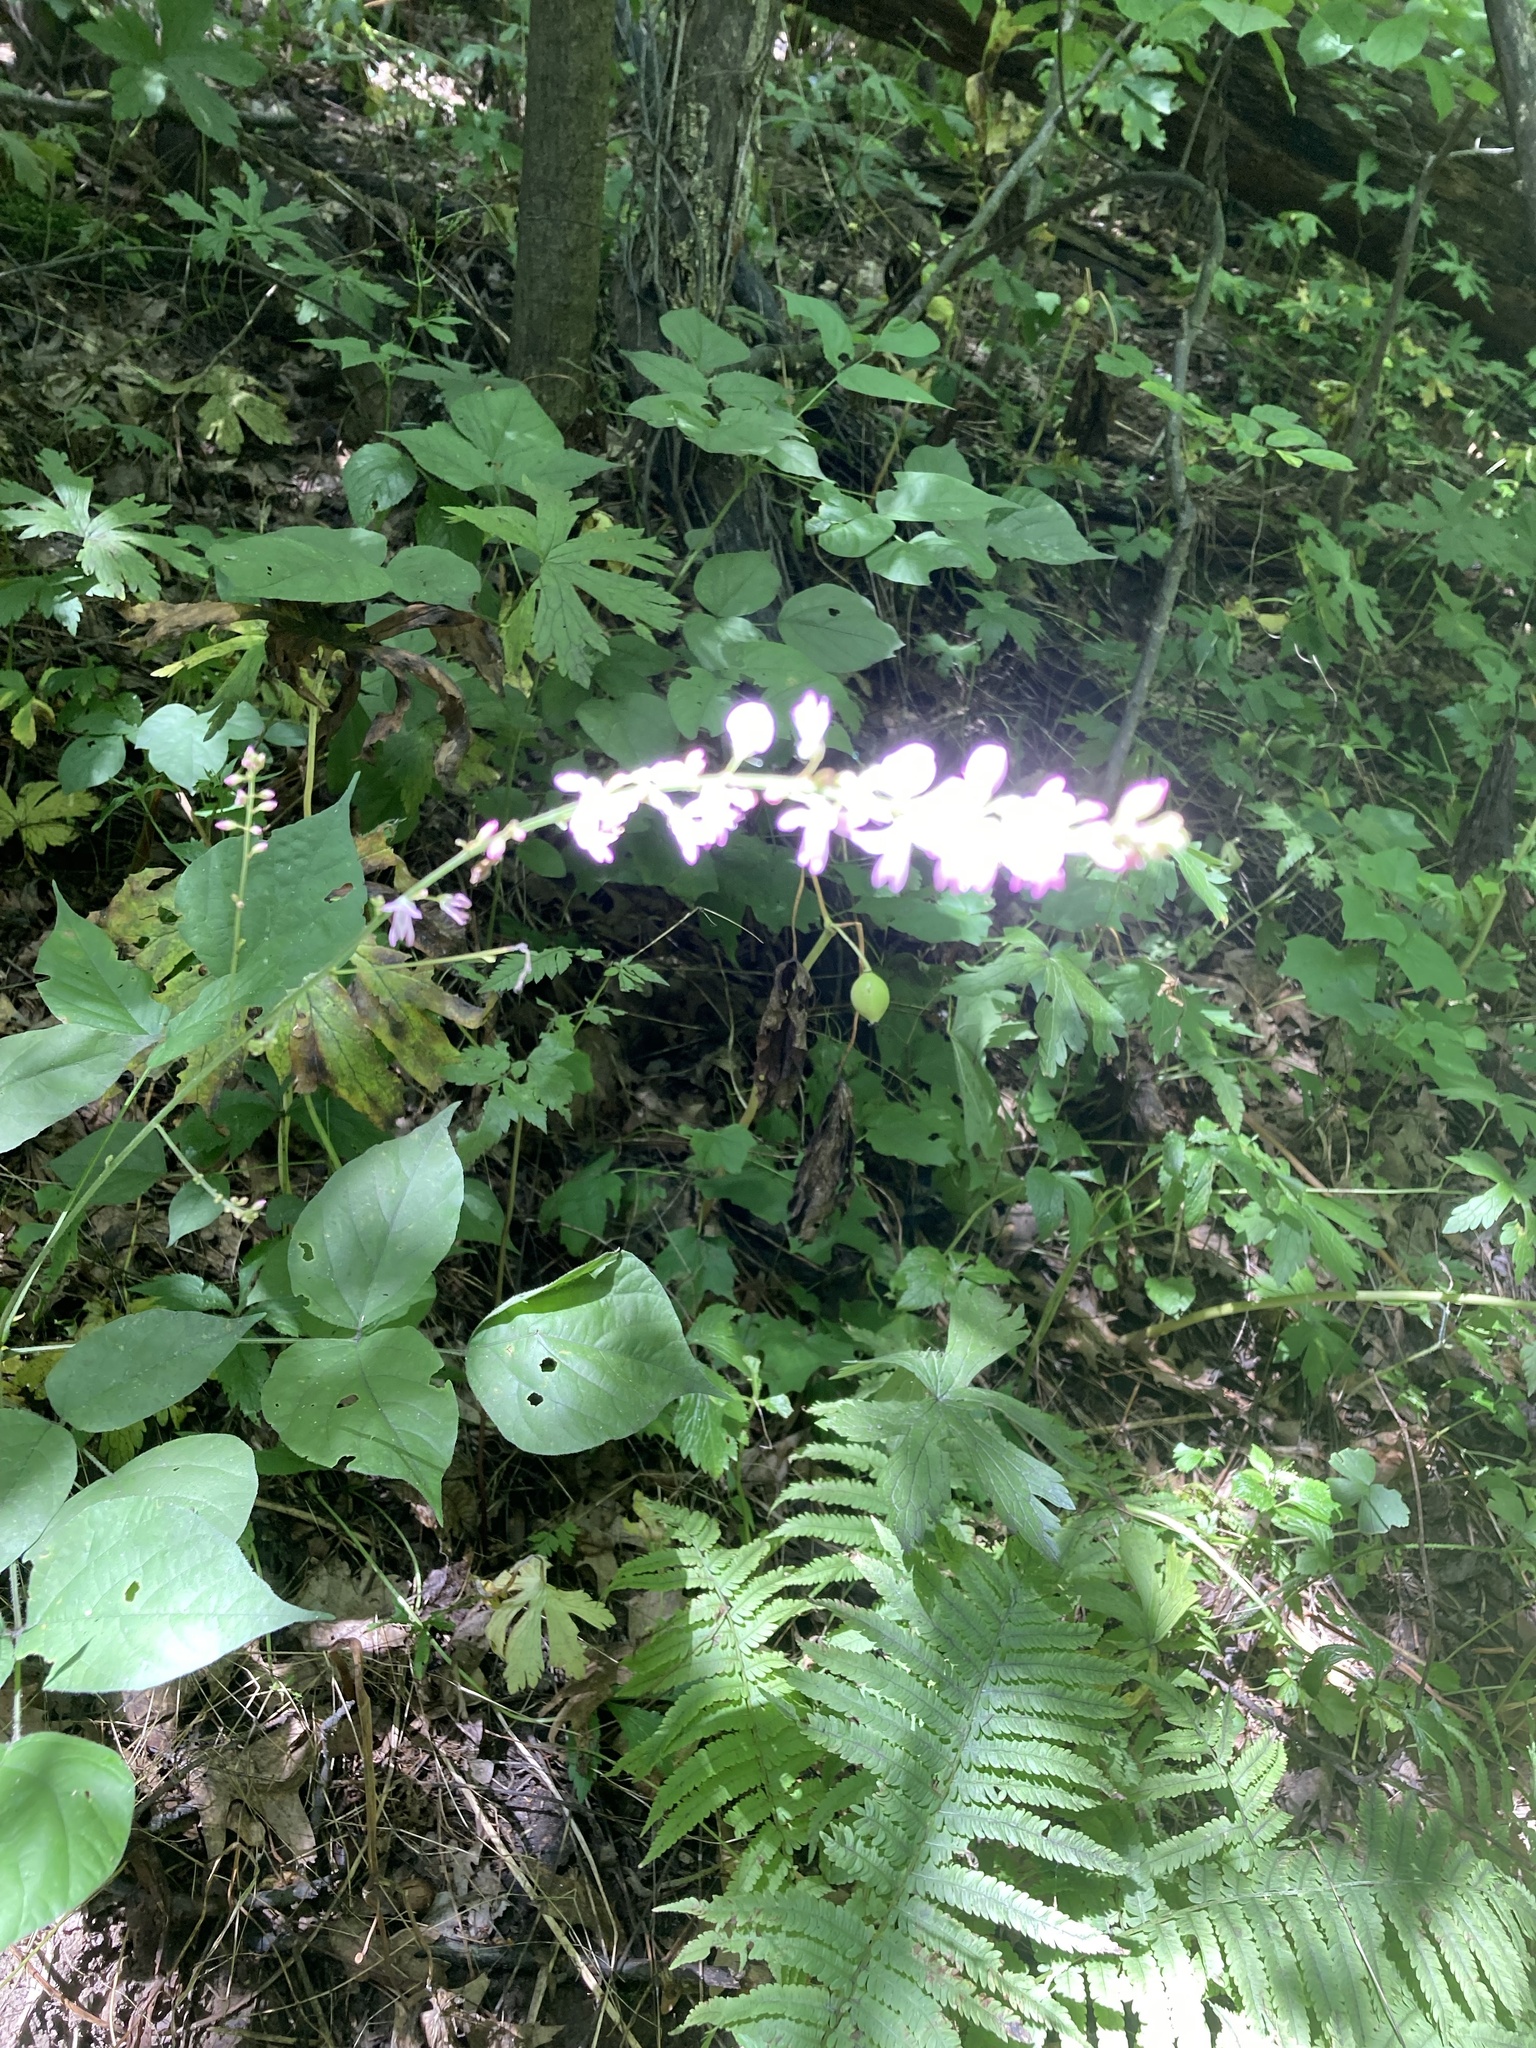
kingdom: Plantae
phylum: Tracheophyta
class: Magnoliopsida
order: Fabales
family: Fabaceae
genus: Hylodesmum
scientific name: Hylodesmum glutinosum
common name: Clustered-leaved tick-trefoil
